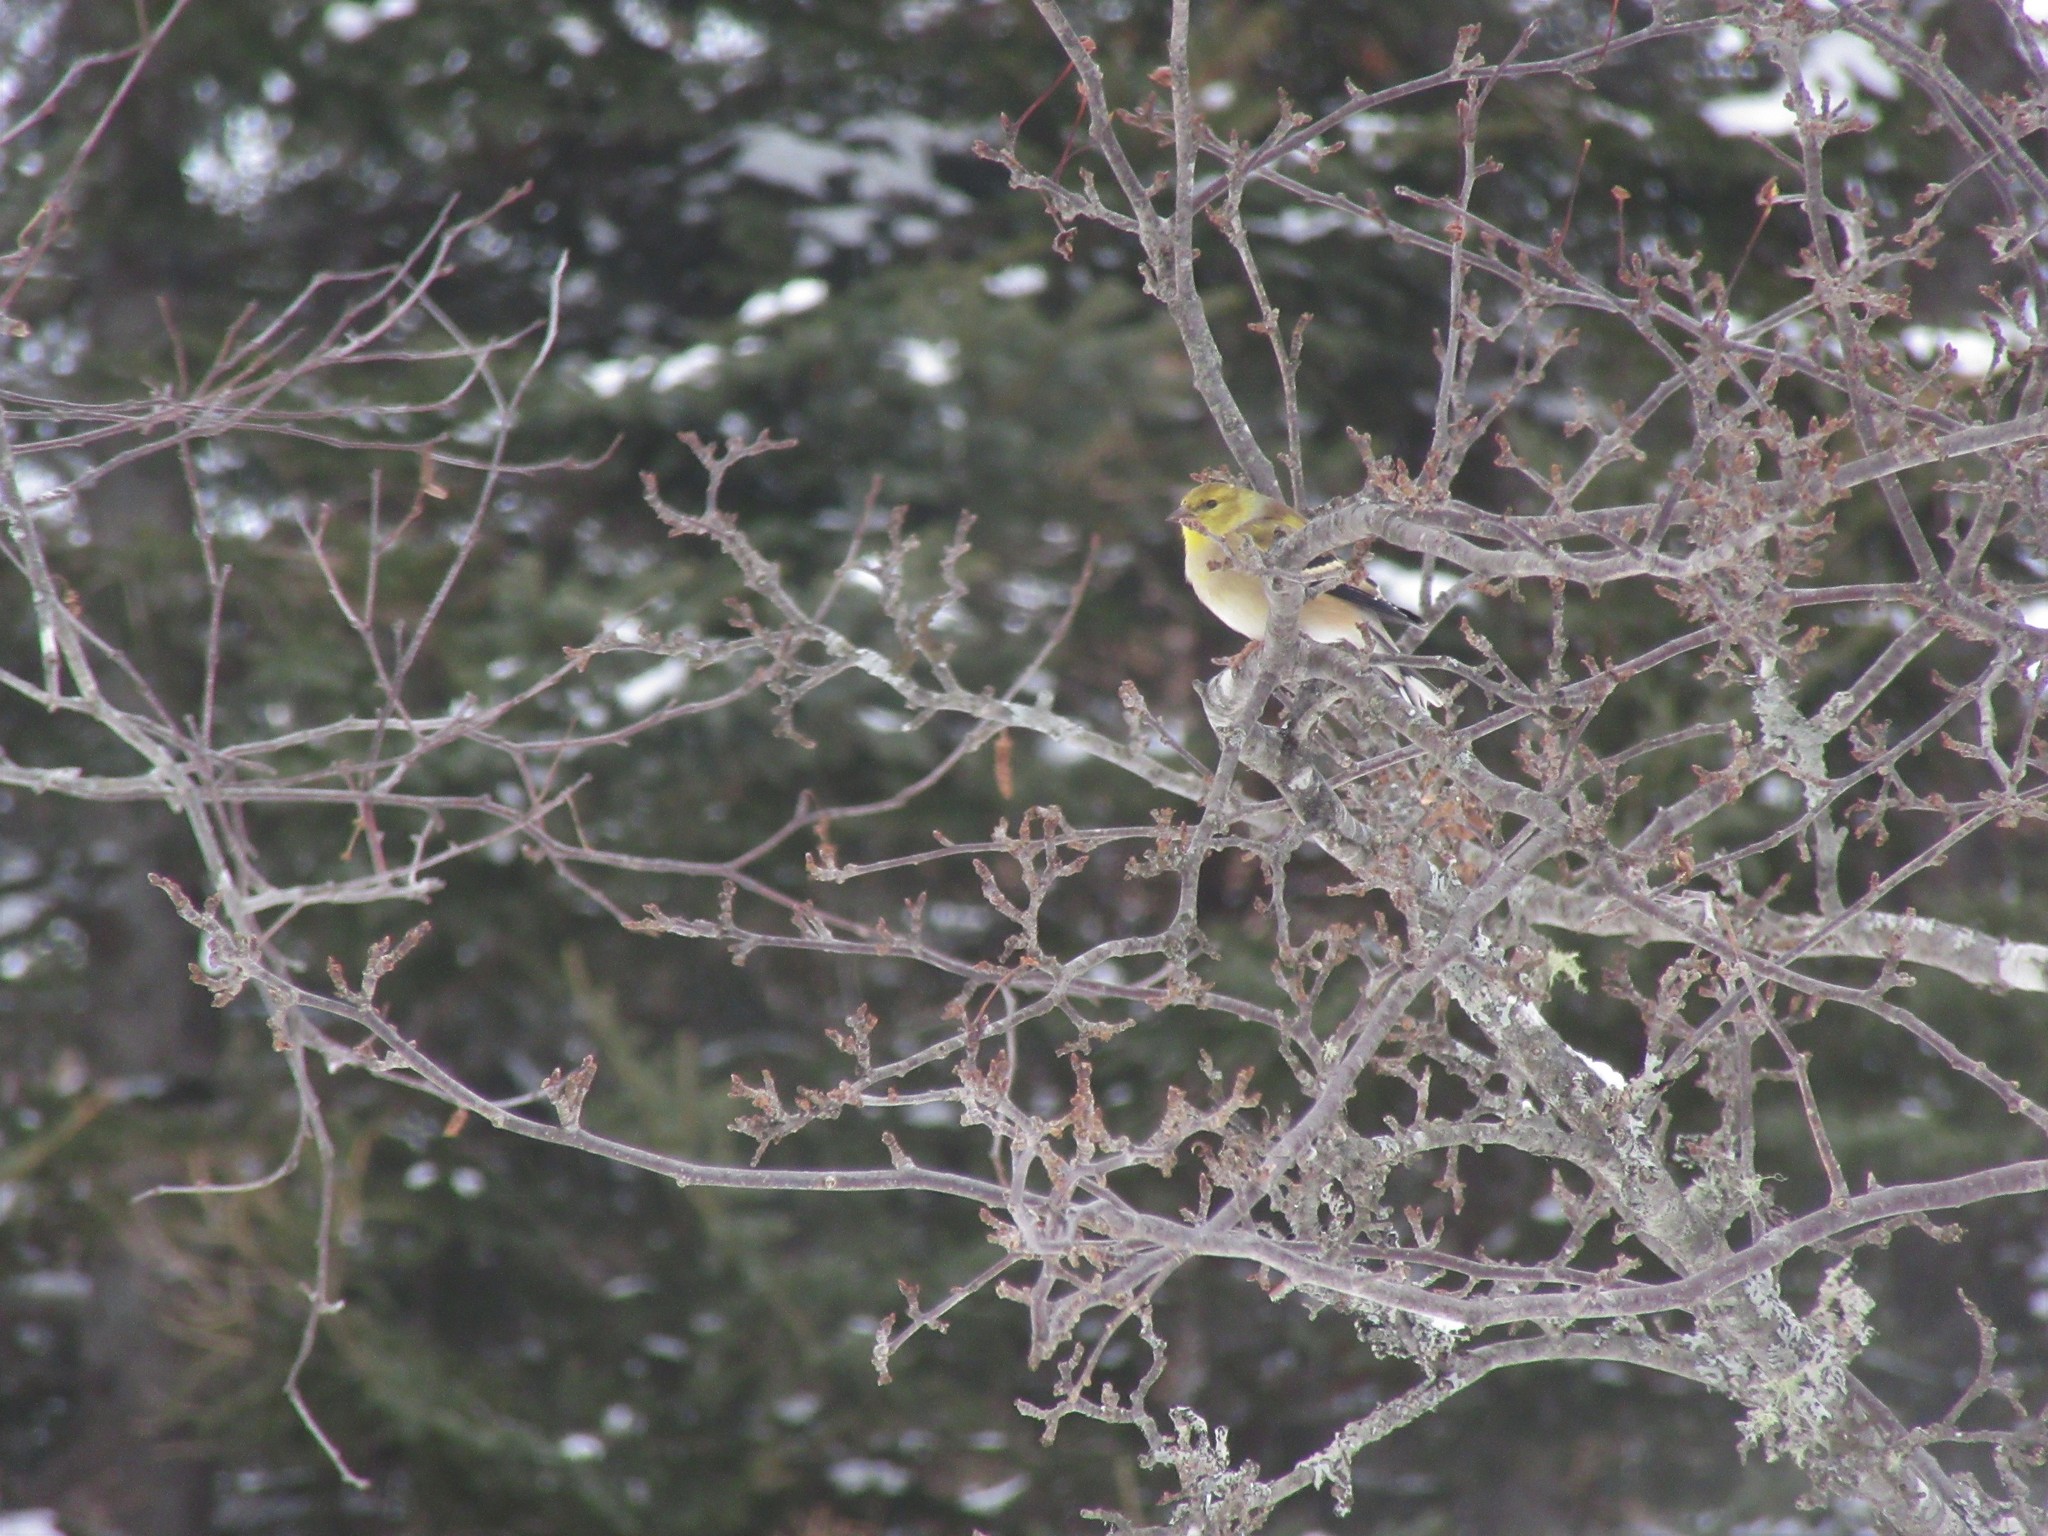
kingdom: Animalia
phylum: Chordata
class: Aves
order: Passeriformes
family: Fringillidae
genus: Spinus
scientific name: Spinus tristis
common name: American goldfinch
